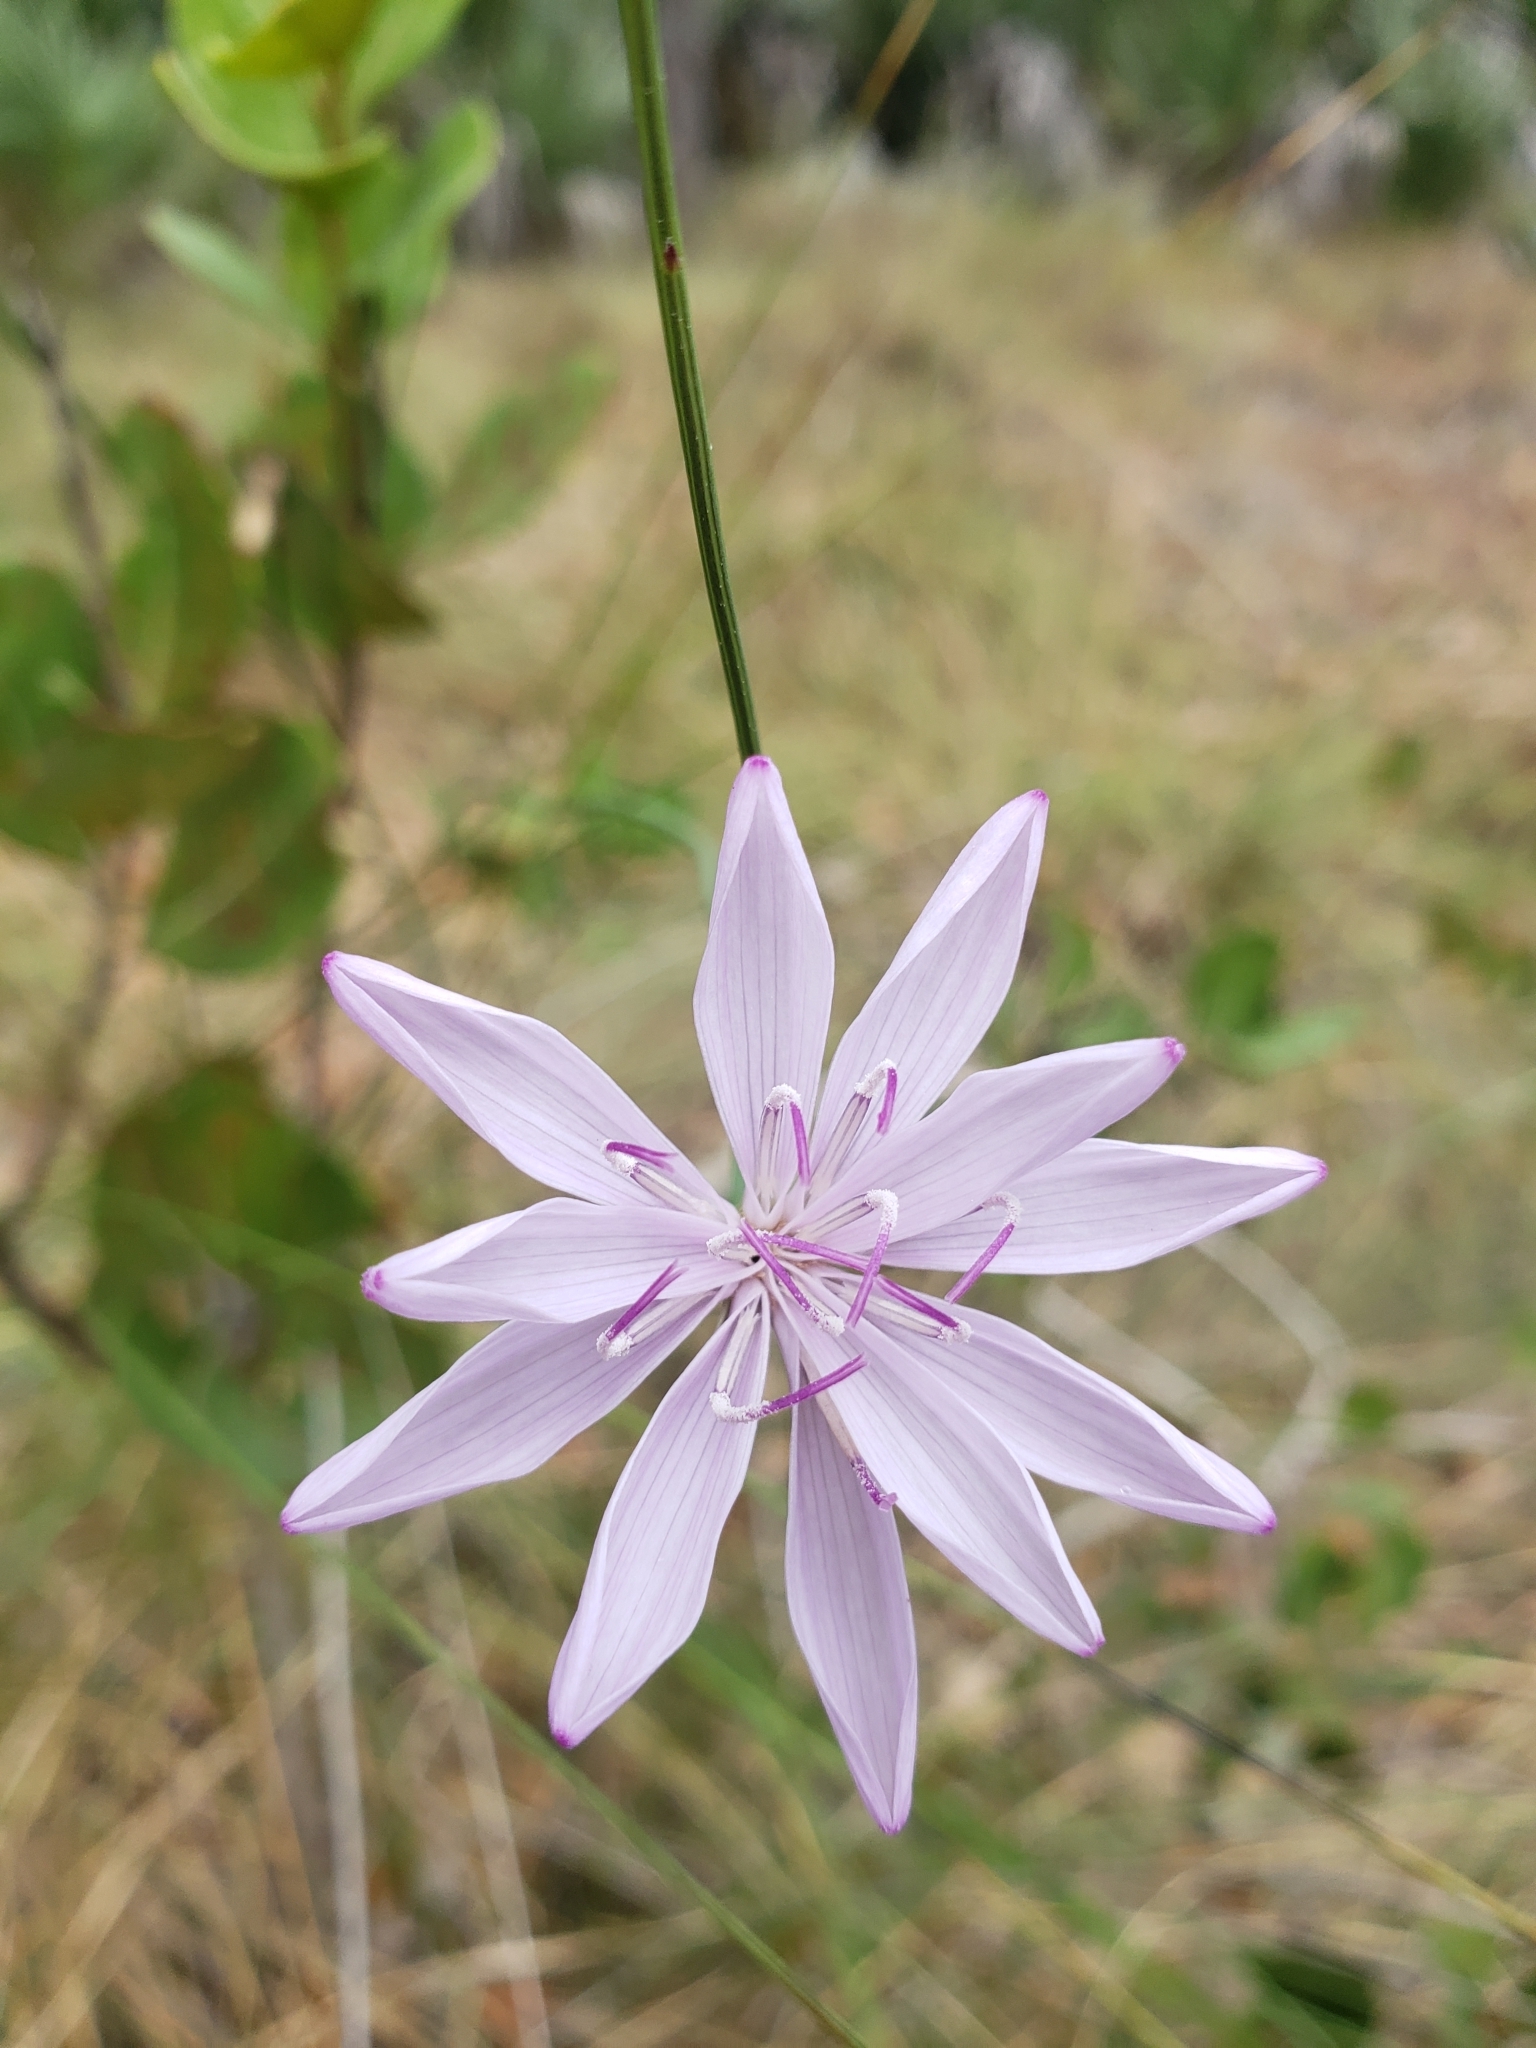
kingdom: Plantae
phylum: Tracheophyta
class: Magnoliopsida
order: Asterales
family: Asteraceae
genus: Lygodesmia
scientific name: Lygodesmia aphylla
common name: Rose-rush
